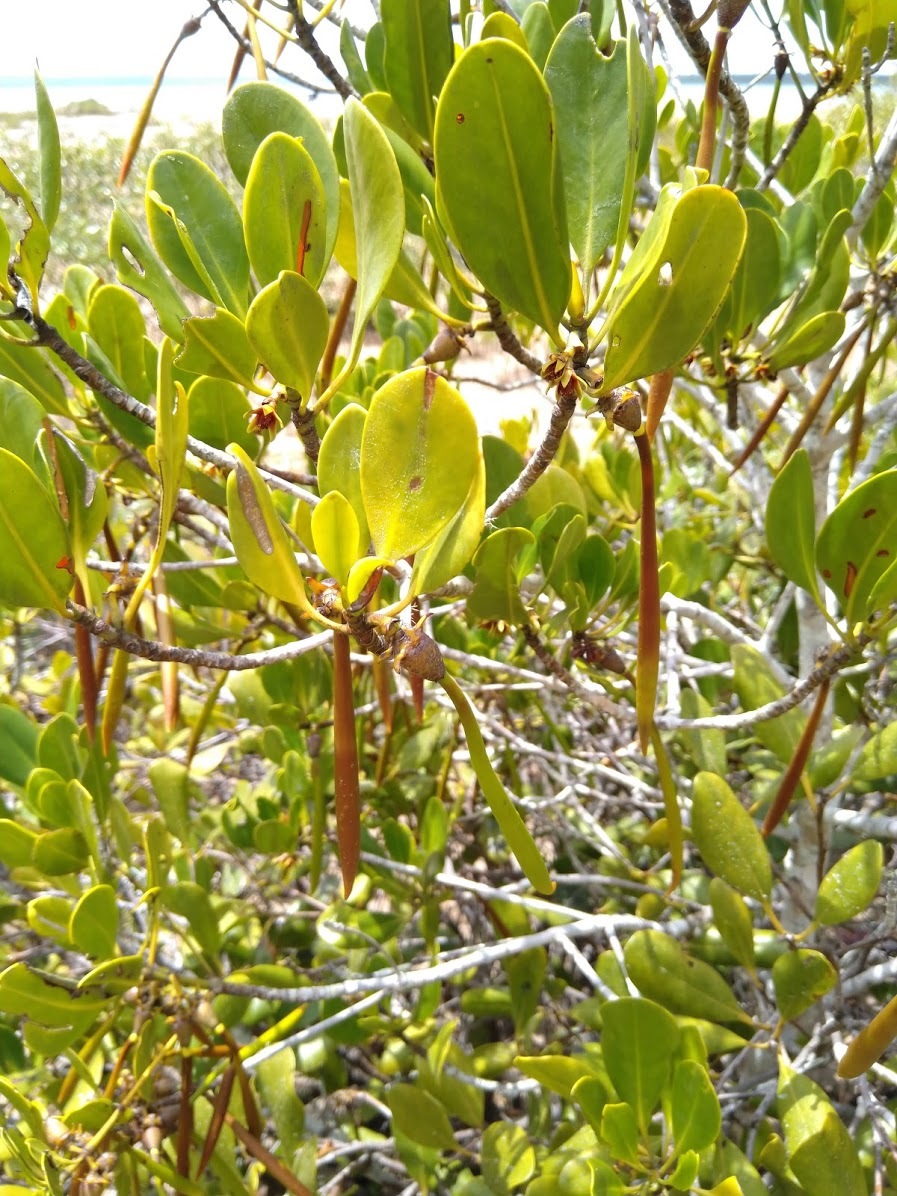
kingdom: Plantae
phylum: Tracheophyta
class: Magnoliopsida
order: Malpighiales
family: Rhizophoraceae
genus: Ceriops
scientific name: Ceriops australis
